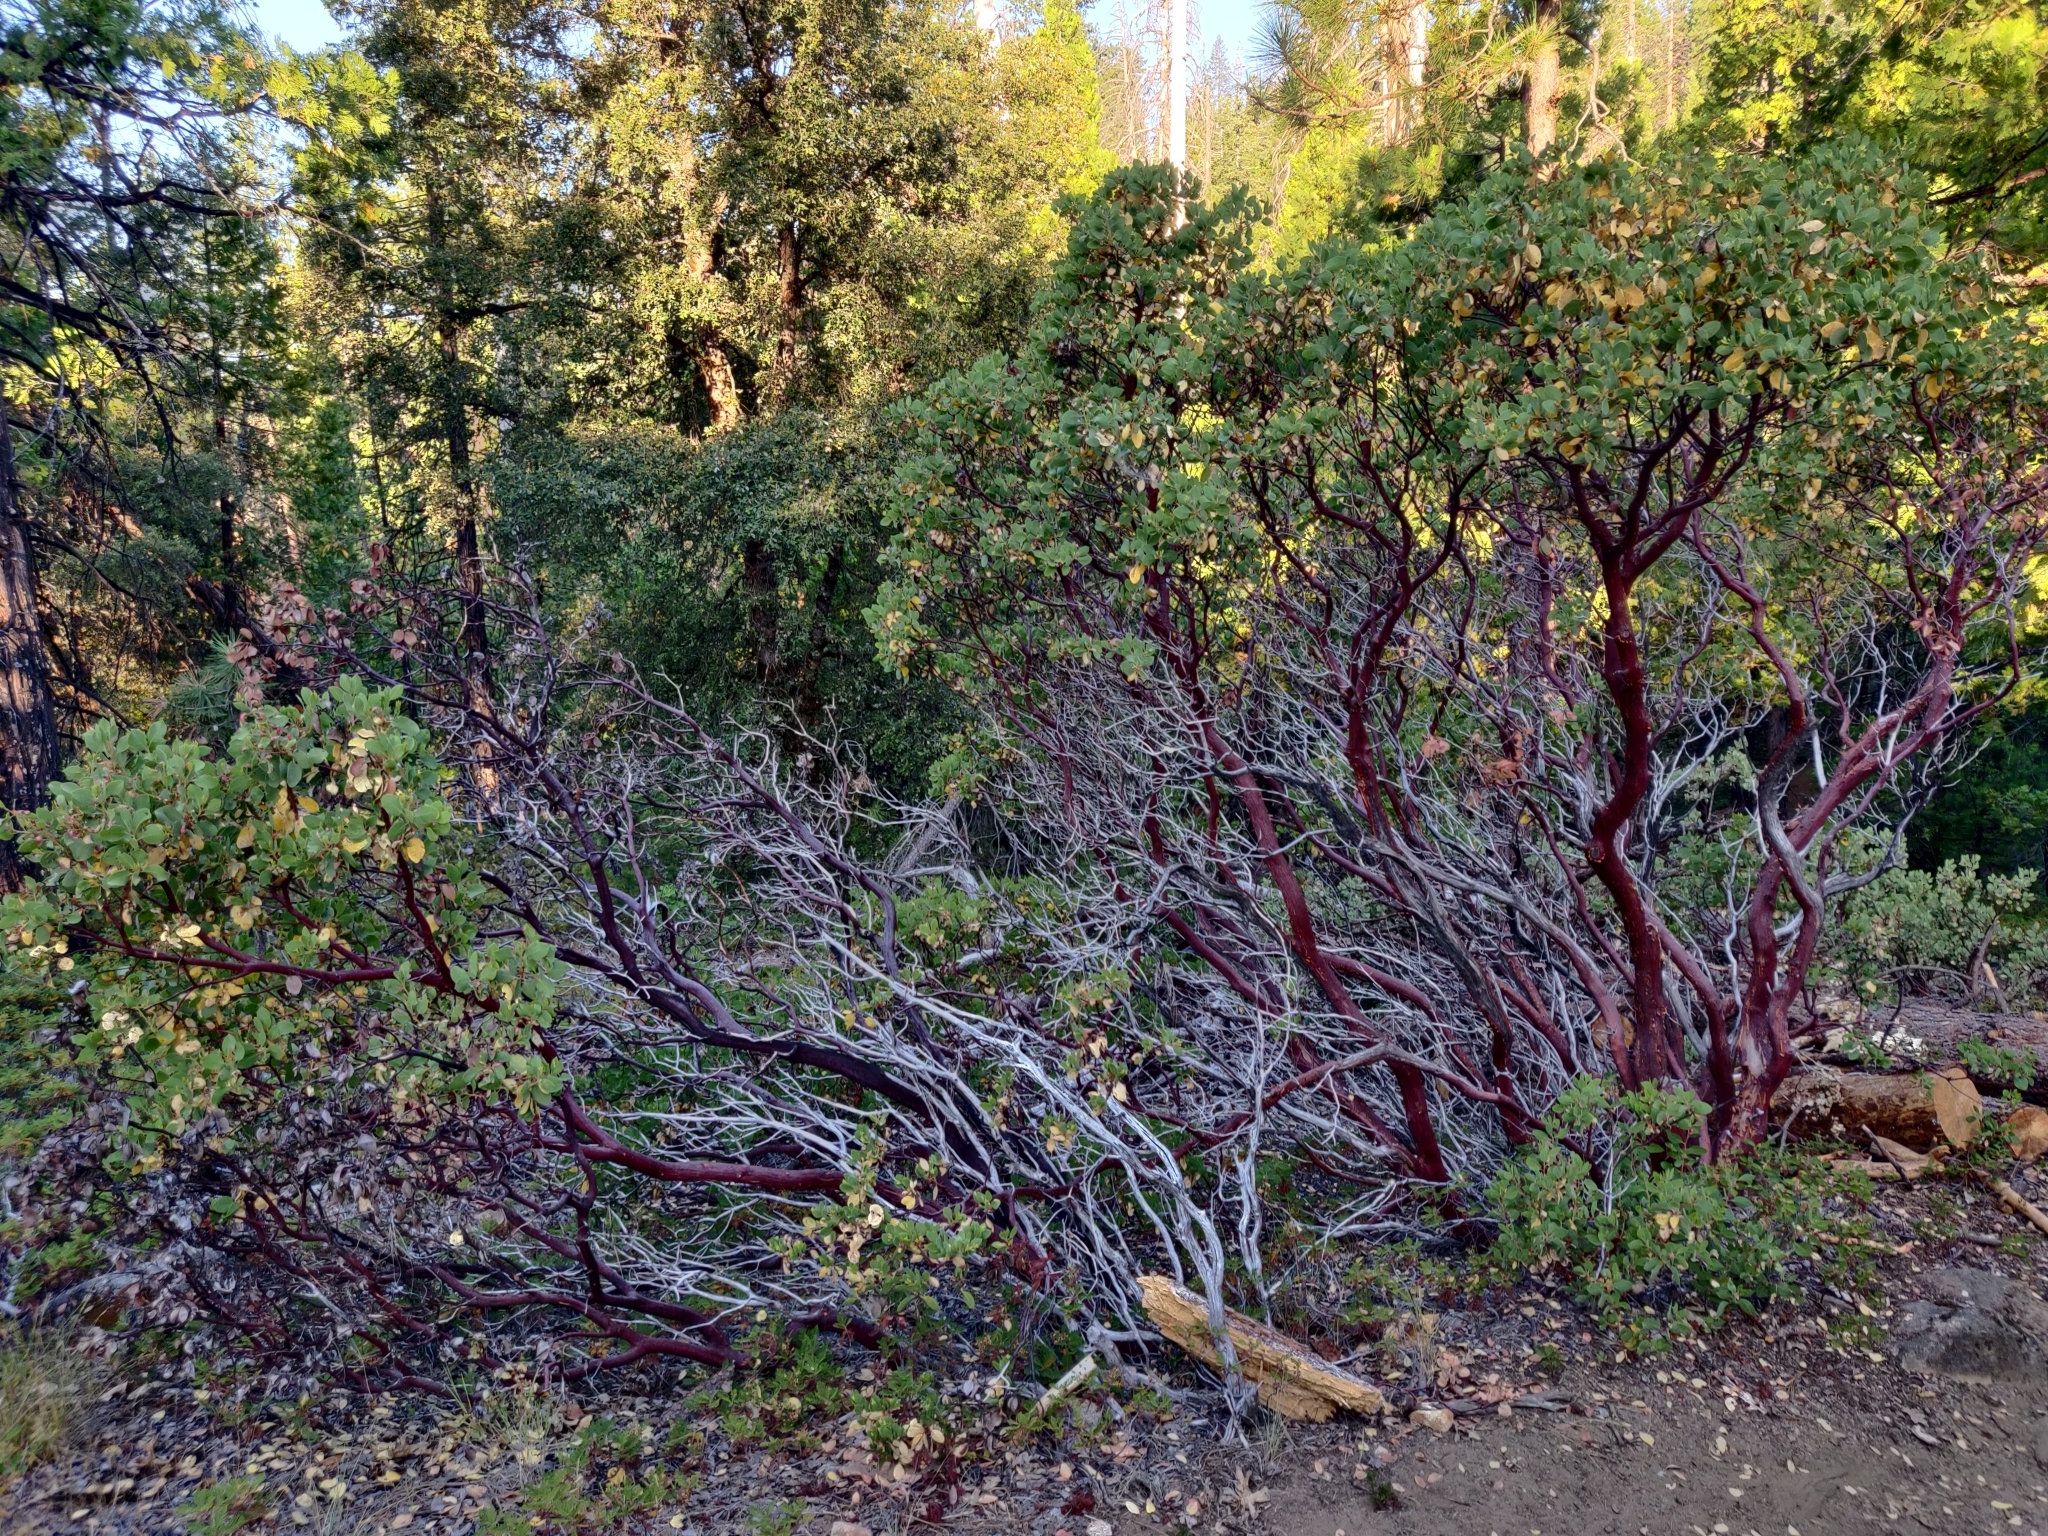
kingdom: Plantae
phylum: Tracheophyta
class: Magnoliopsida
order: Ericales
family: Ericaceae
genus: Arctostaphylos
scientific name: Arctostaphylos viscida
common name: White-leaf manzanita
